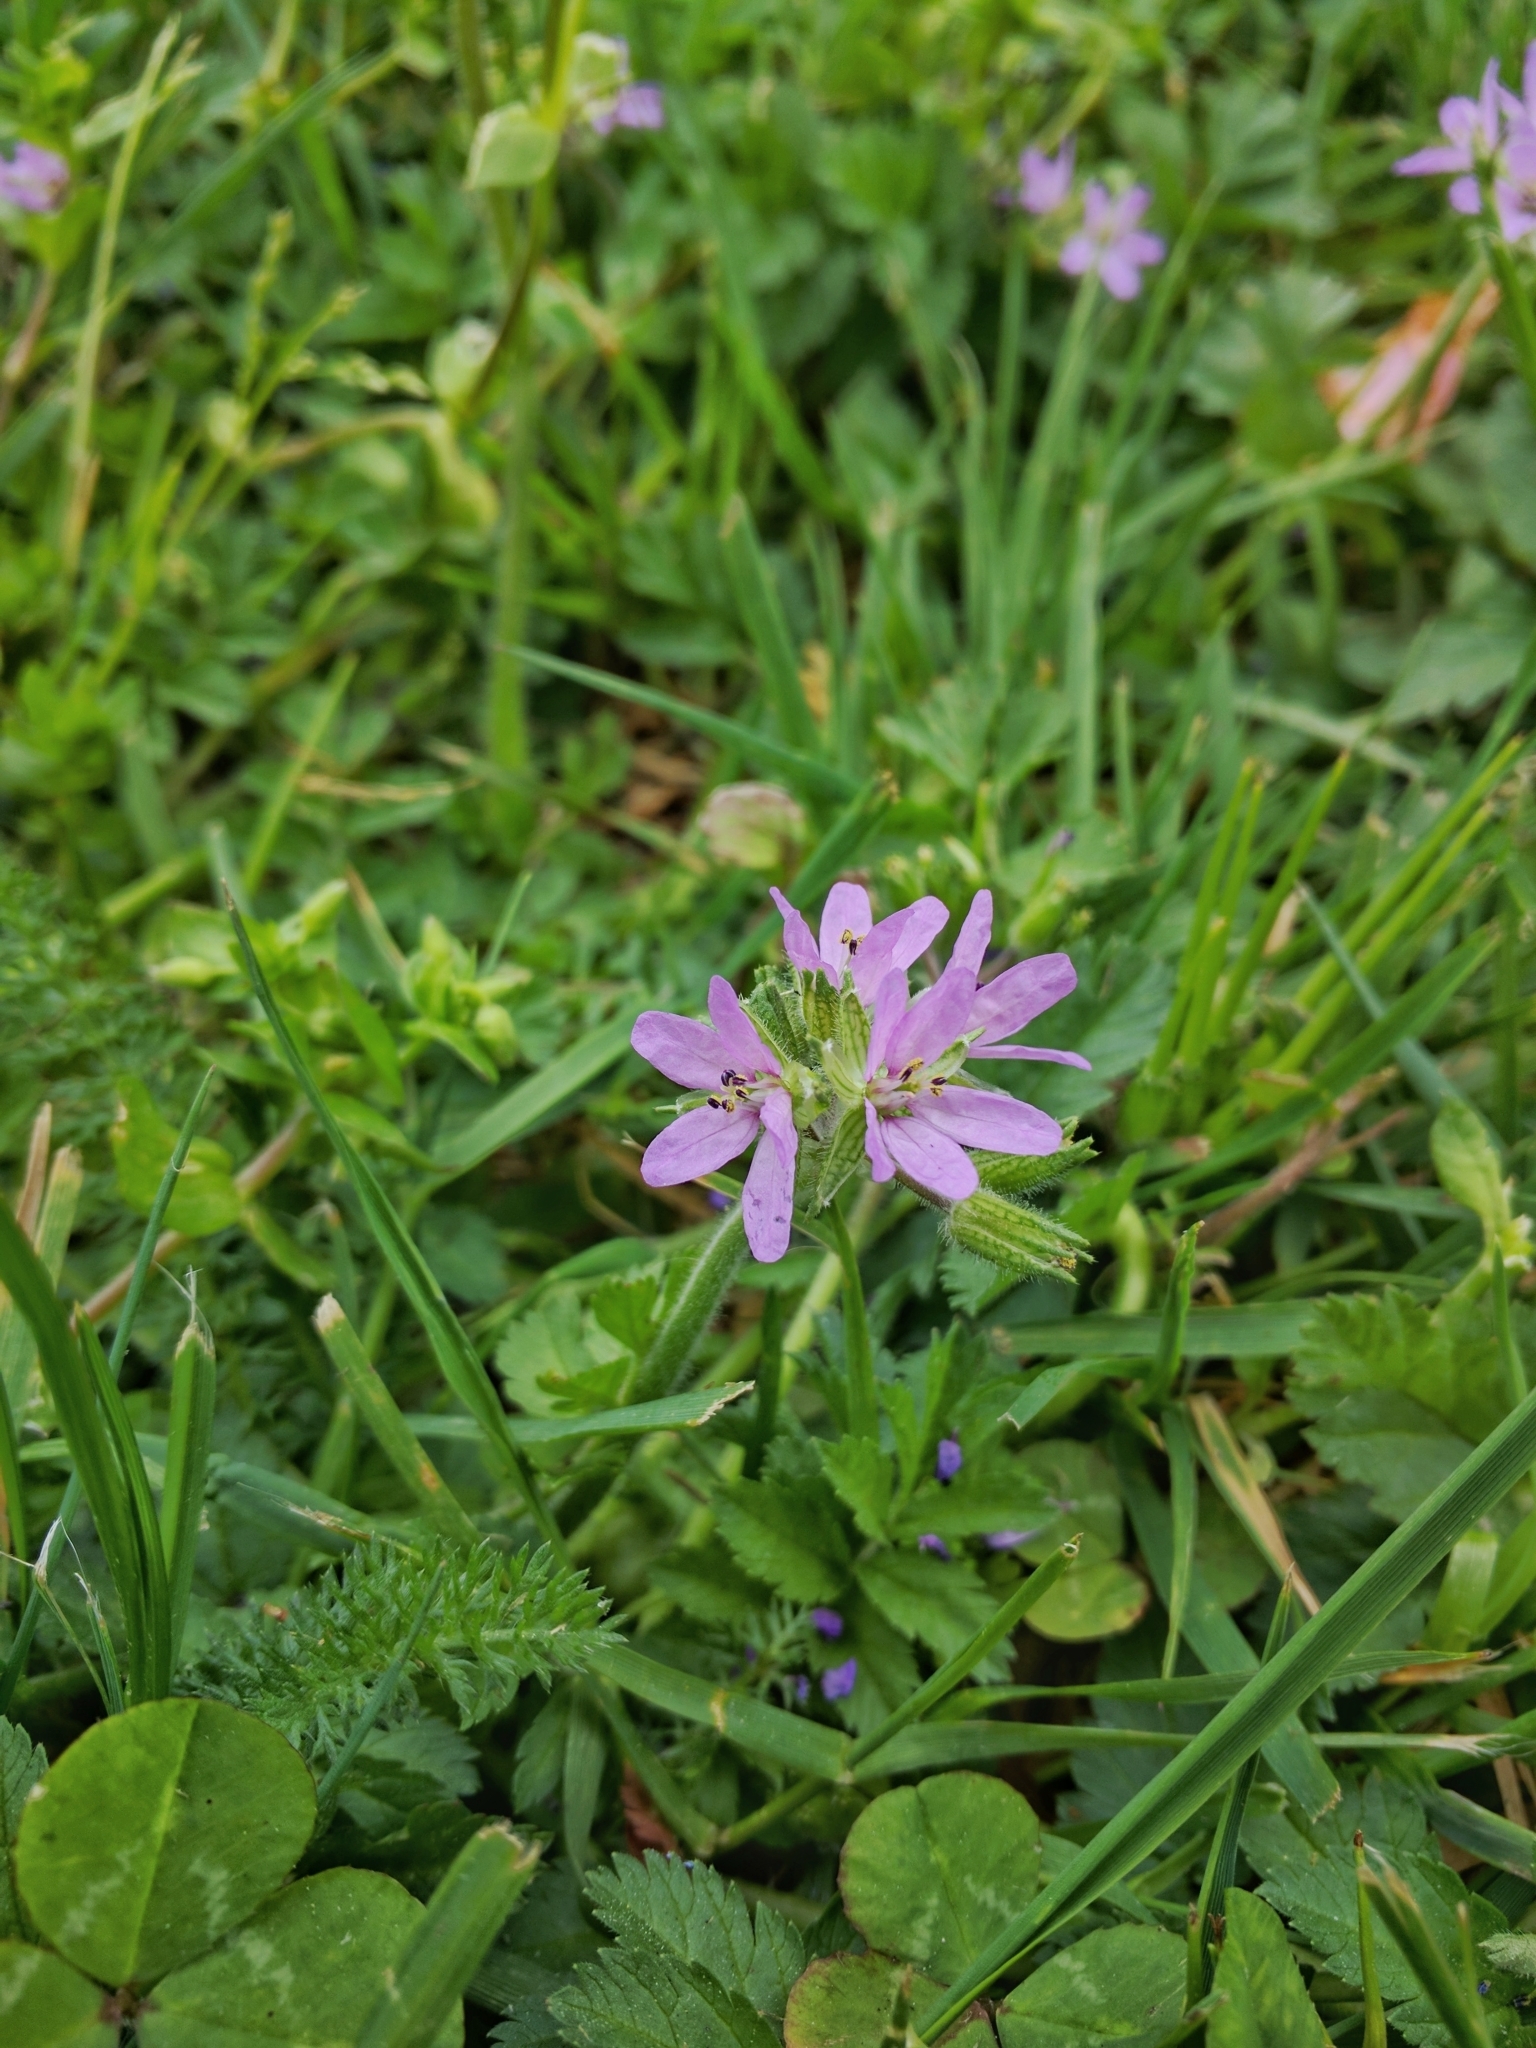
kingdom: Plantae
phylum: Tracheophyta
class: Magnoliopsida
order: Geraniales
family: Geraniaceae
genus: Erodium
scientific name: Erodium moschatum
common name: Musk stork's-bill
